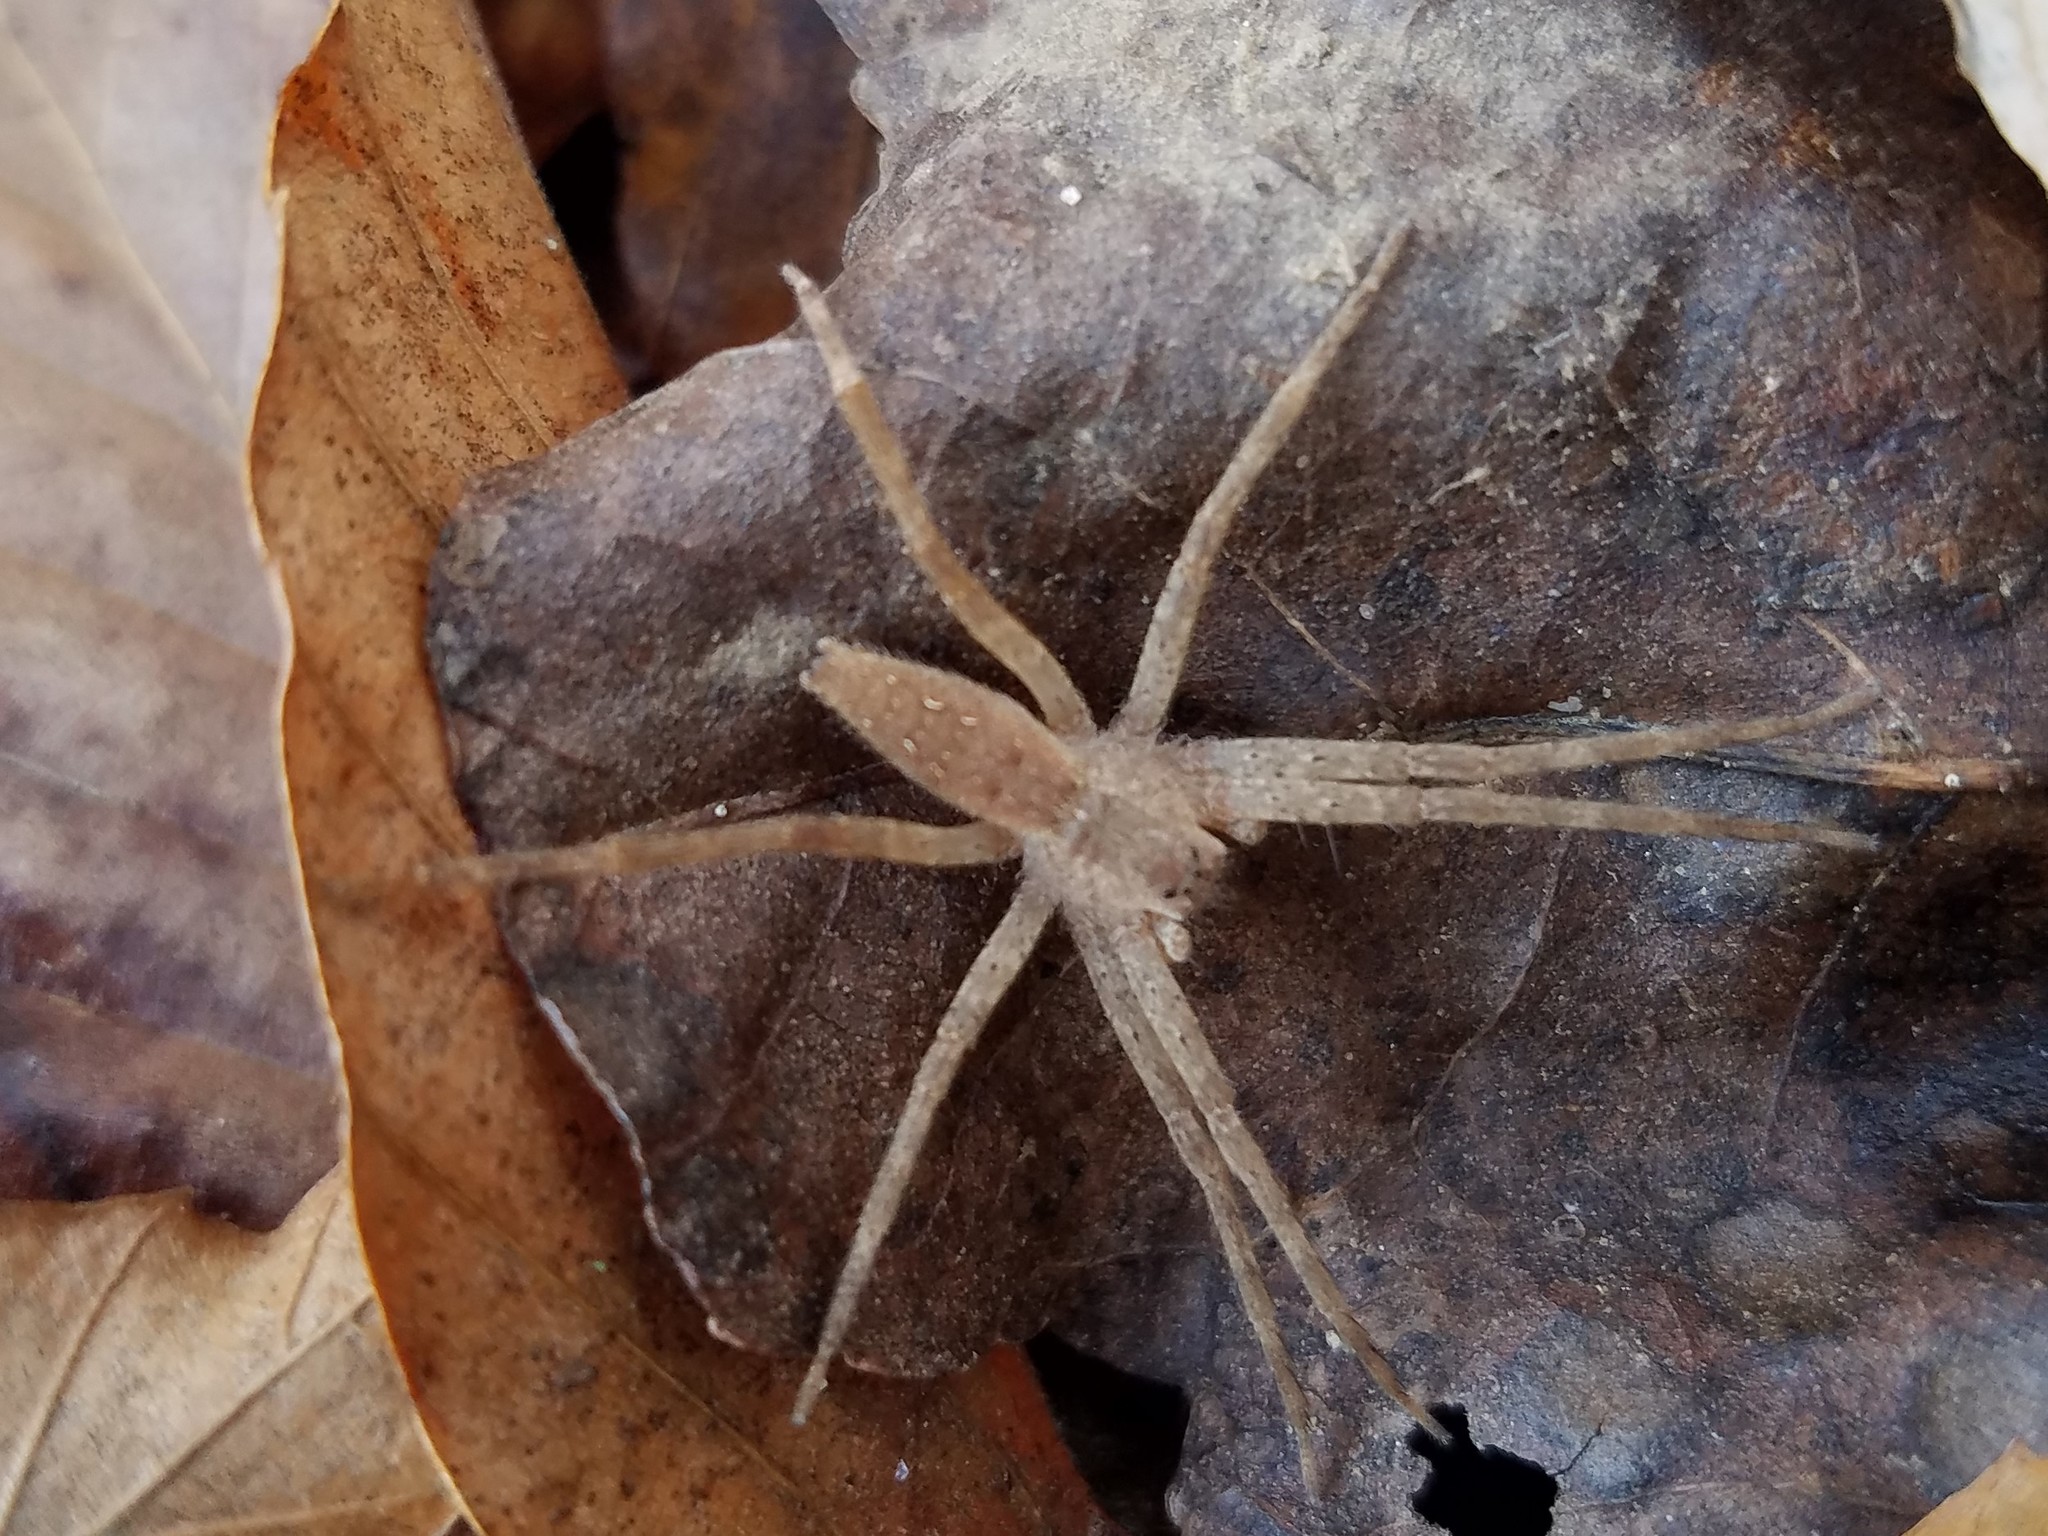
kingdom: Animalia
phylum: Arthropoda
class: Arachnida
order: Araneae
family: Pisauridae
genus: Pisaurina
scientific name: Pisaurina mira
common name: American nursery web spider
